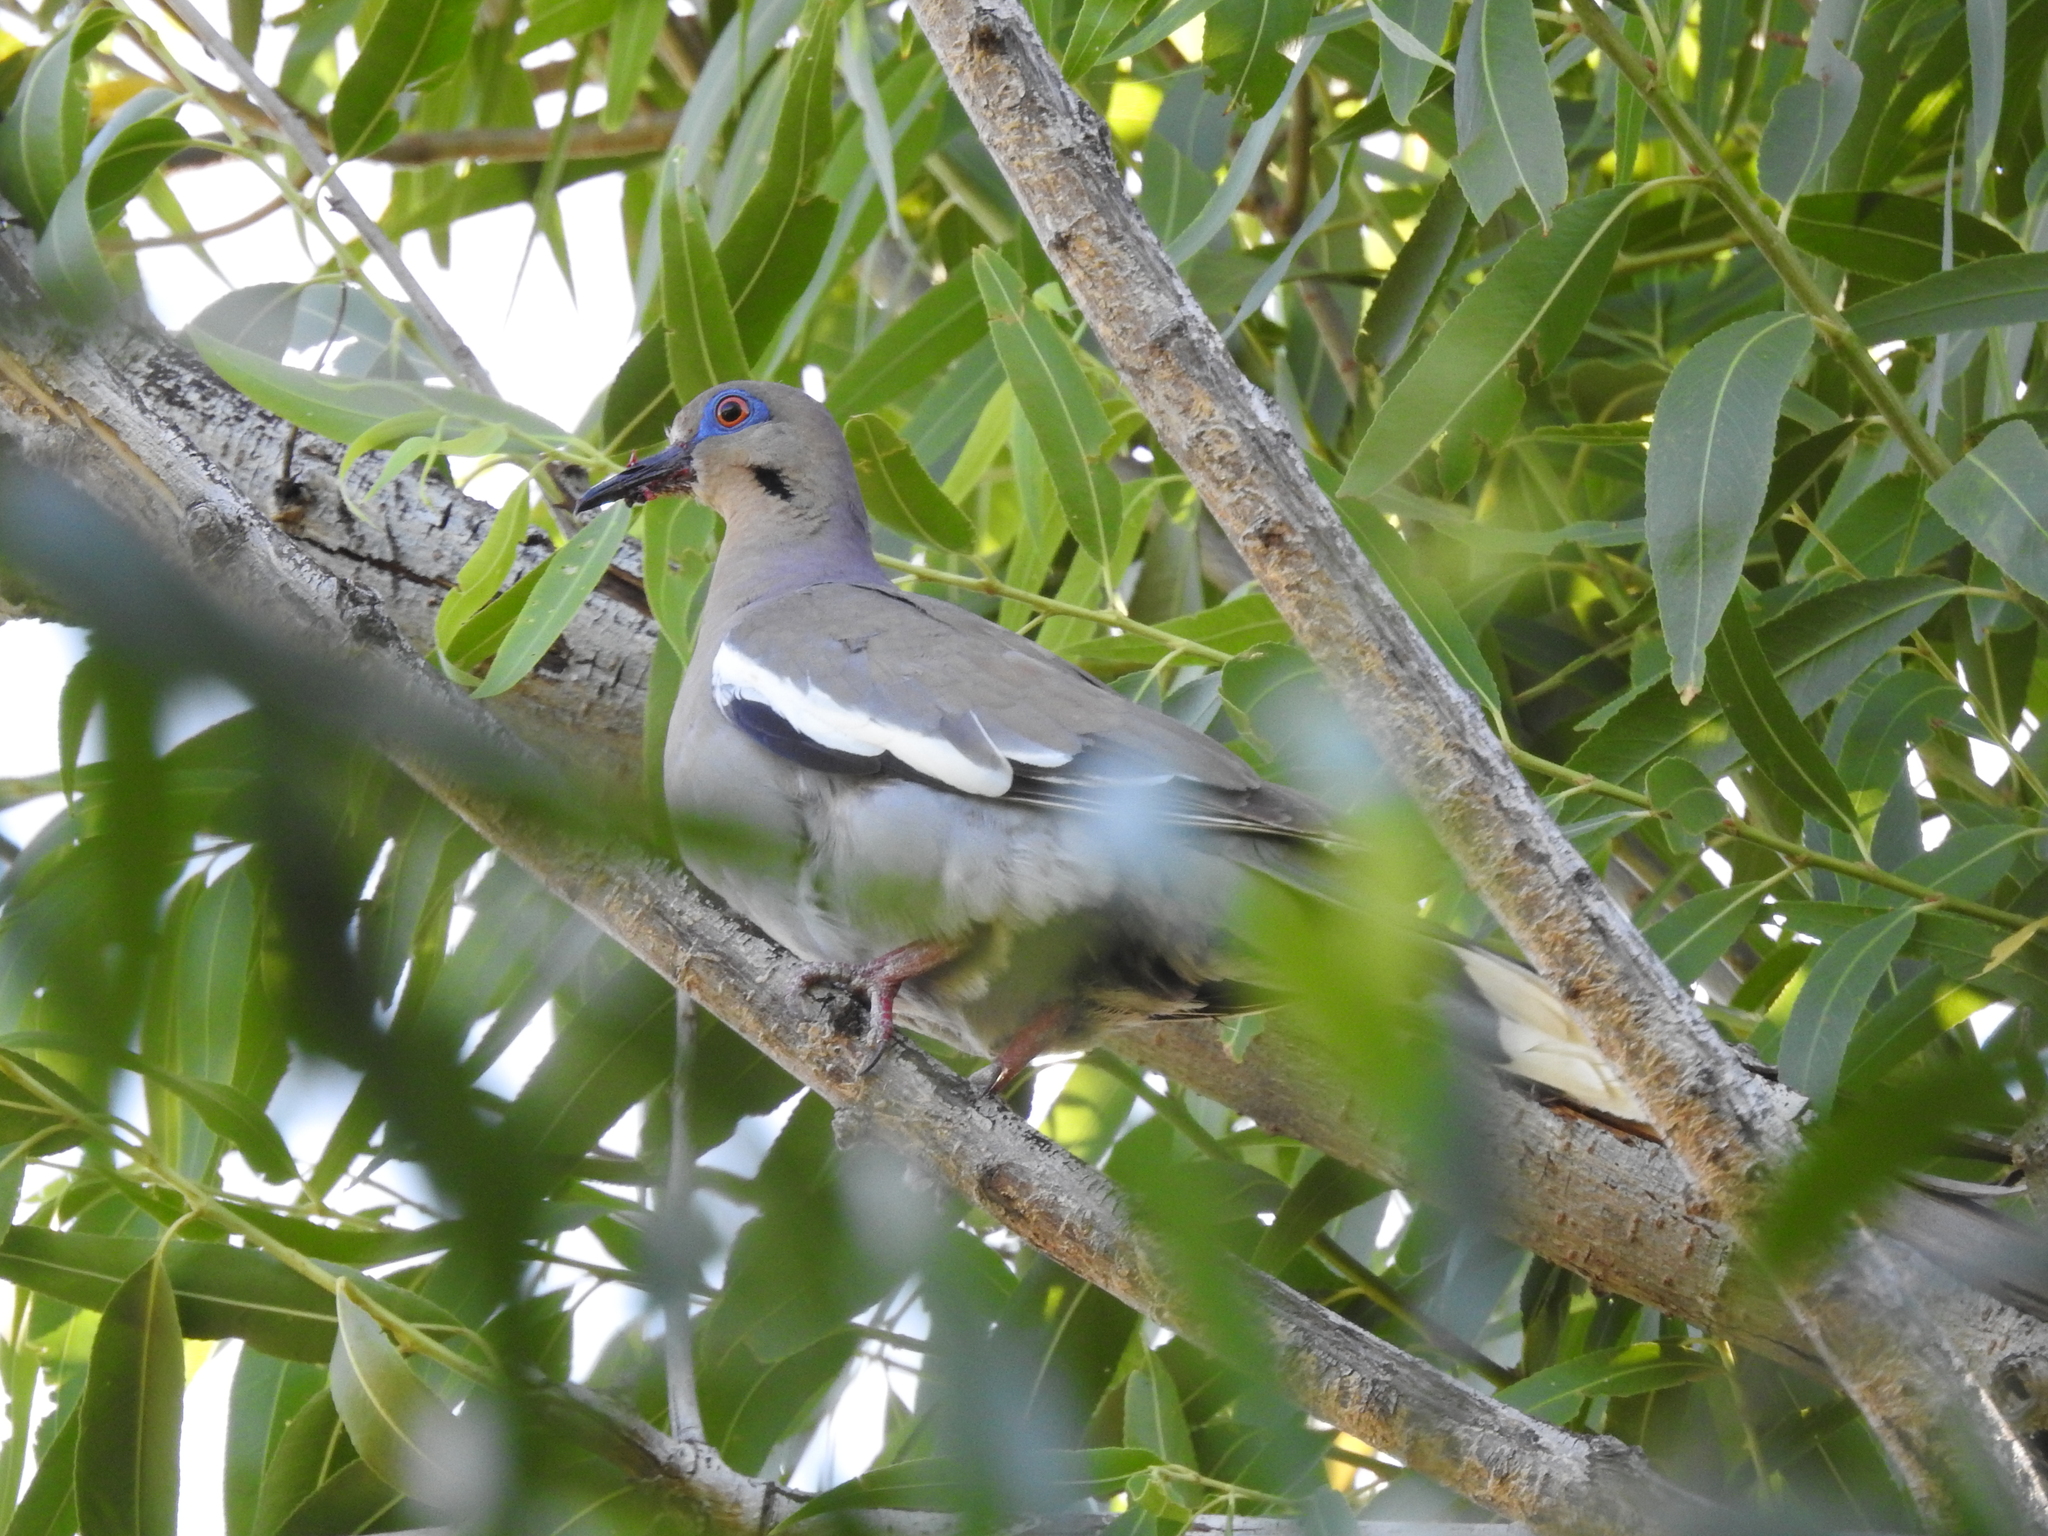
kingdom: Animalia
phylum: Chordata
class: Aves
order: Columbiformes
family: Columbidae
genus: Zenaida
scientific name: Zenaida asiatica
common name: White-winged dove
